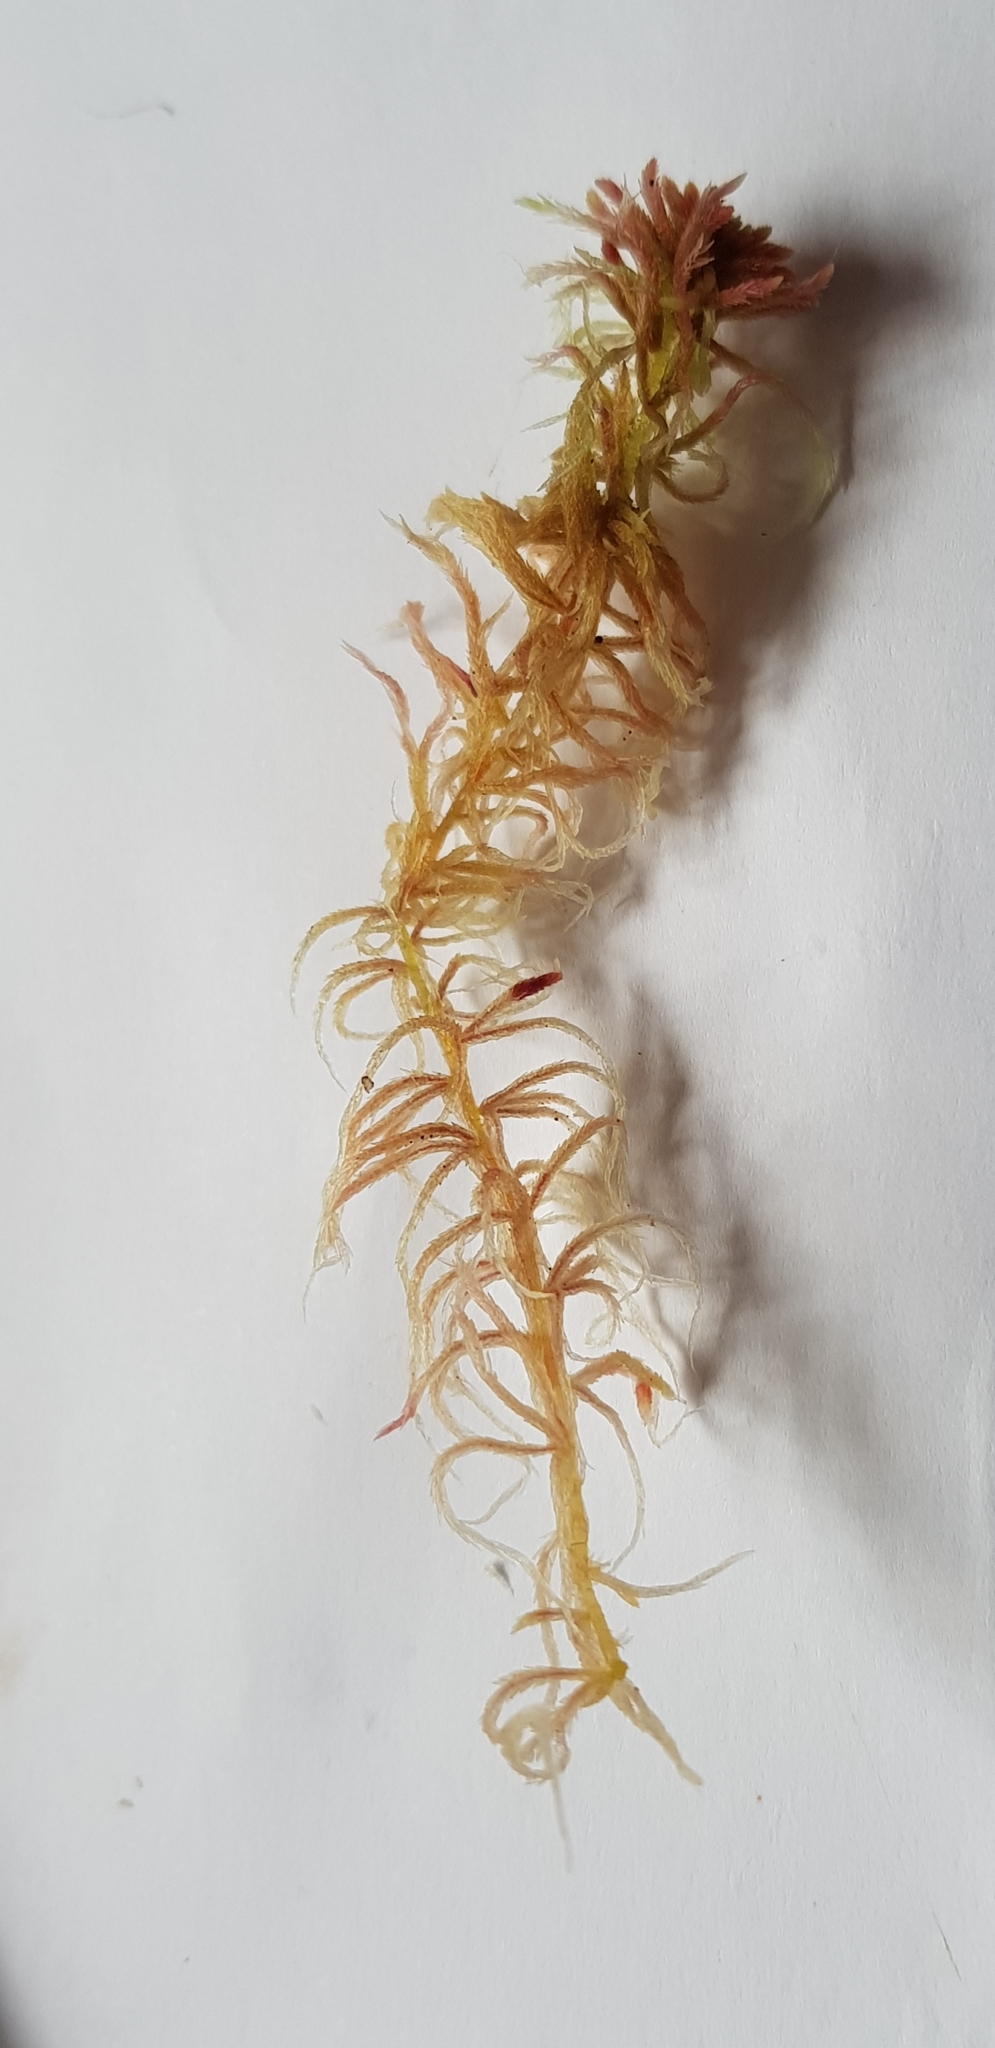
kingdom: Plantae
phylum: Bryophyta
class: Sphagnopsida
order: Sphagnales
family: Sphagnaceae
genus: Sphagnum
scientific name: Sphagnum quinquefarium
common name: Five-ranked peat moss
